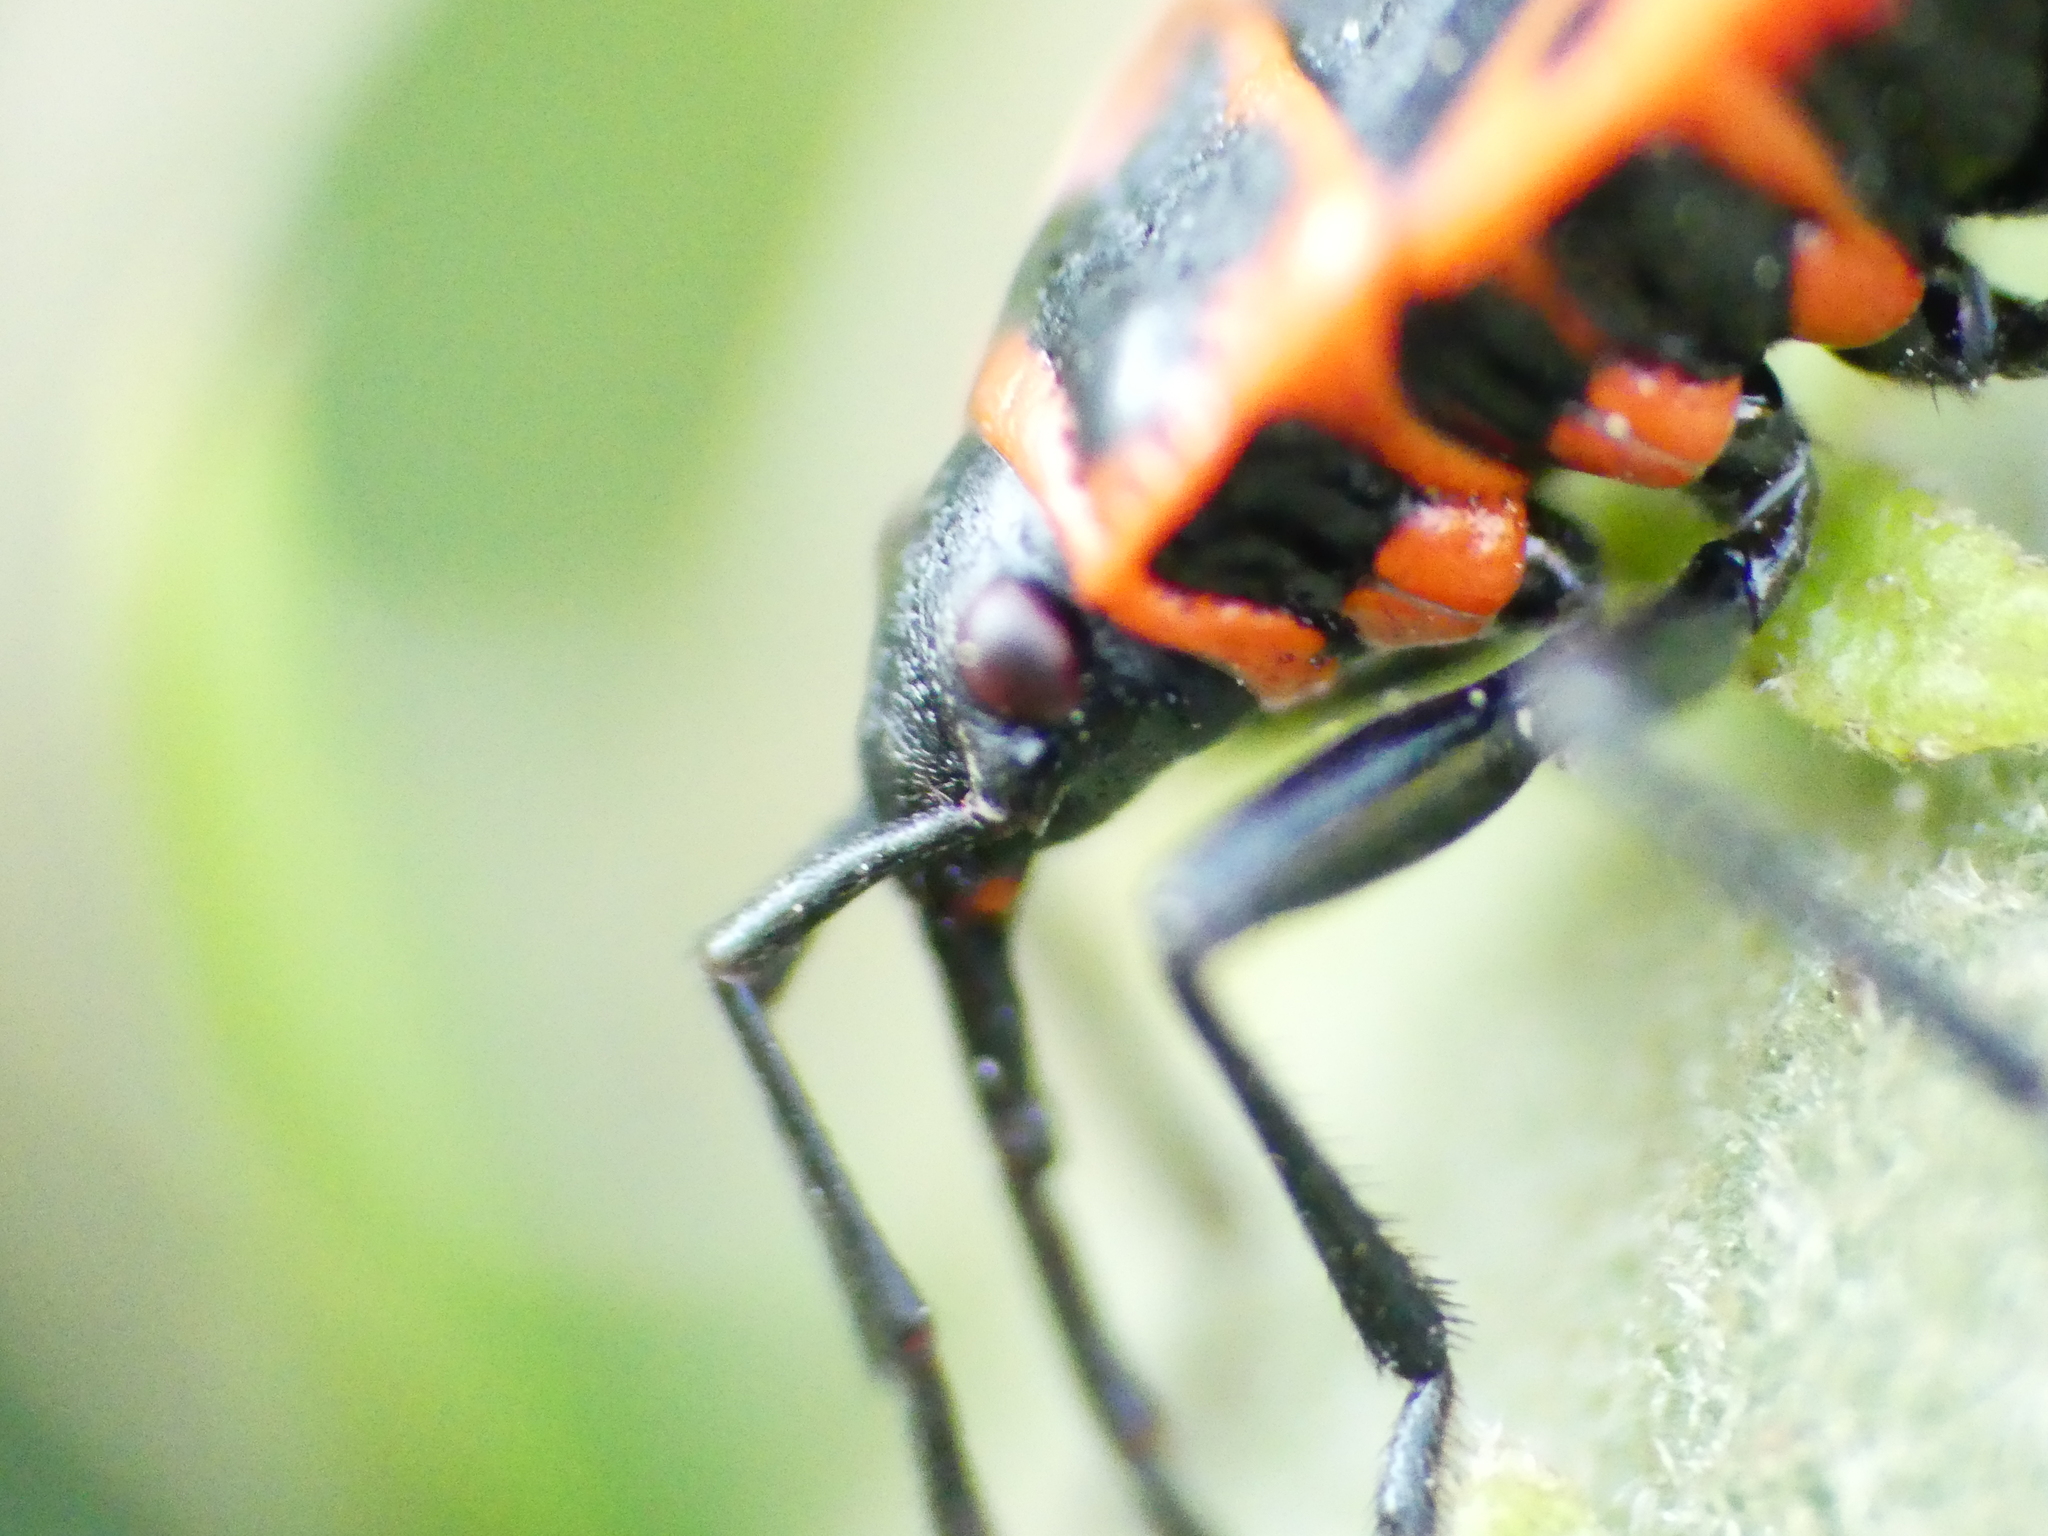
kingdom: Animalia
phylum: Arthropoda
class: Insecta
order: Hemiptera
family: Pyrrhocoridae
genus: Pyrrhocoris
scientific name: Pyrrhocoris apterus
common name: Firebug
